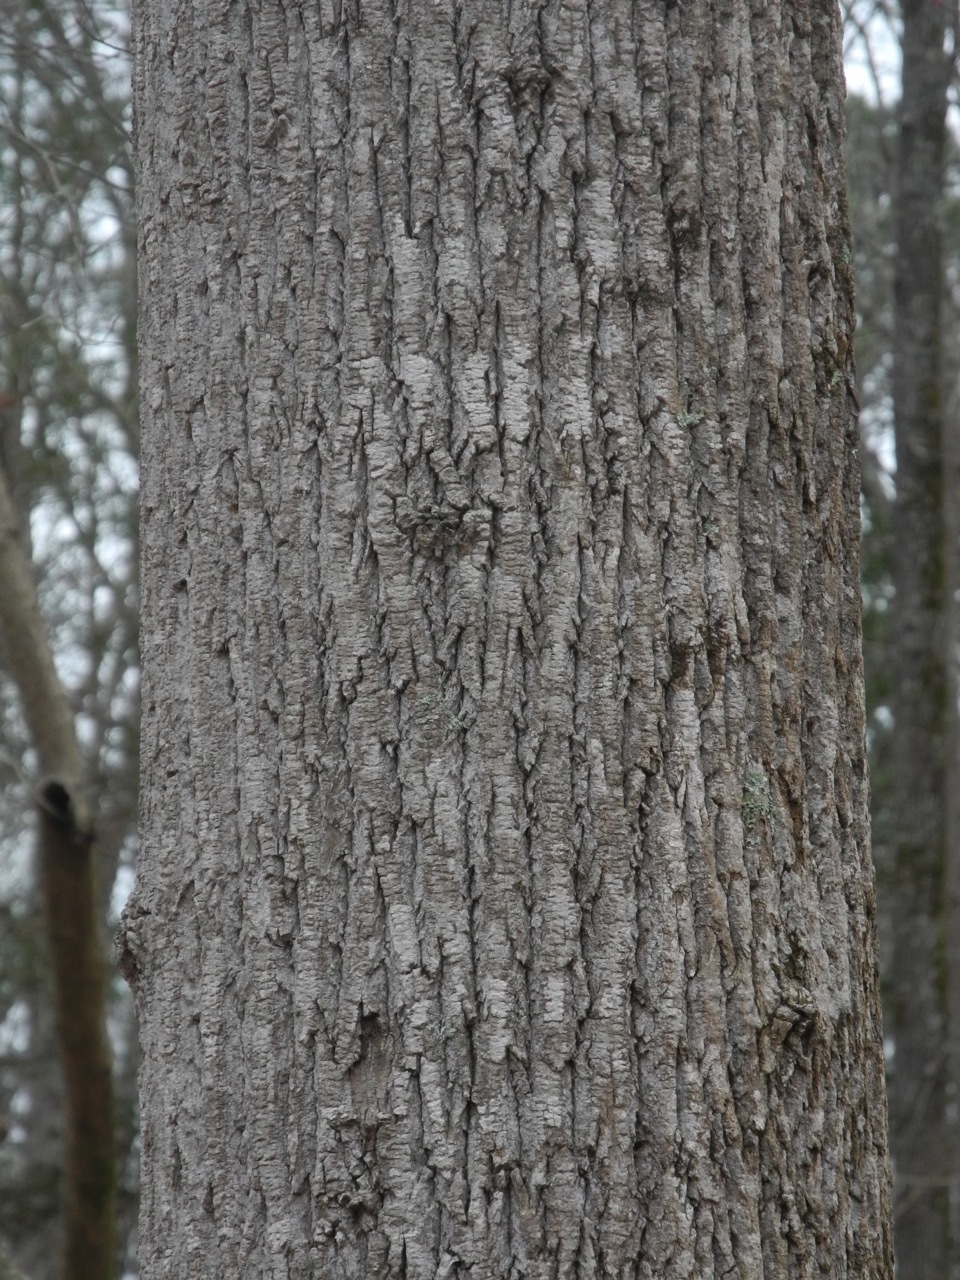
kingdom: Plantae
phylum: Tracheophyta
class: Magnoliopsida
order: Magnoliales
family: Magnoliaceae
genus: Liriodendron
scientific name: Liriodendron tulipifera
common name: Tulip tree
